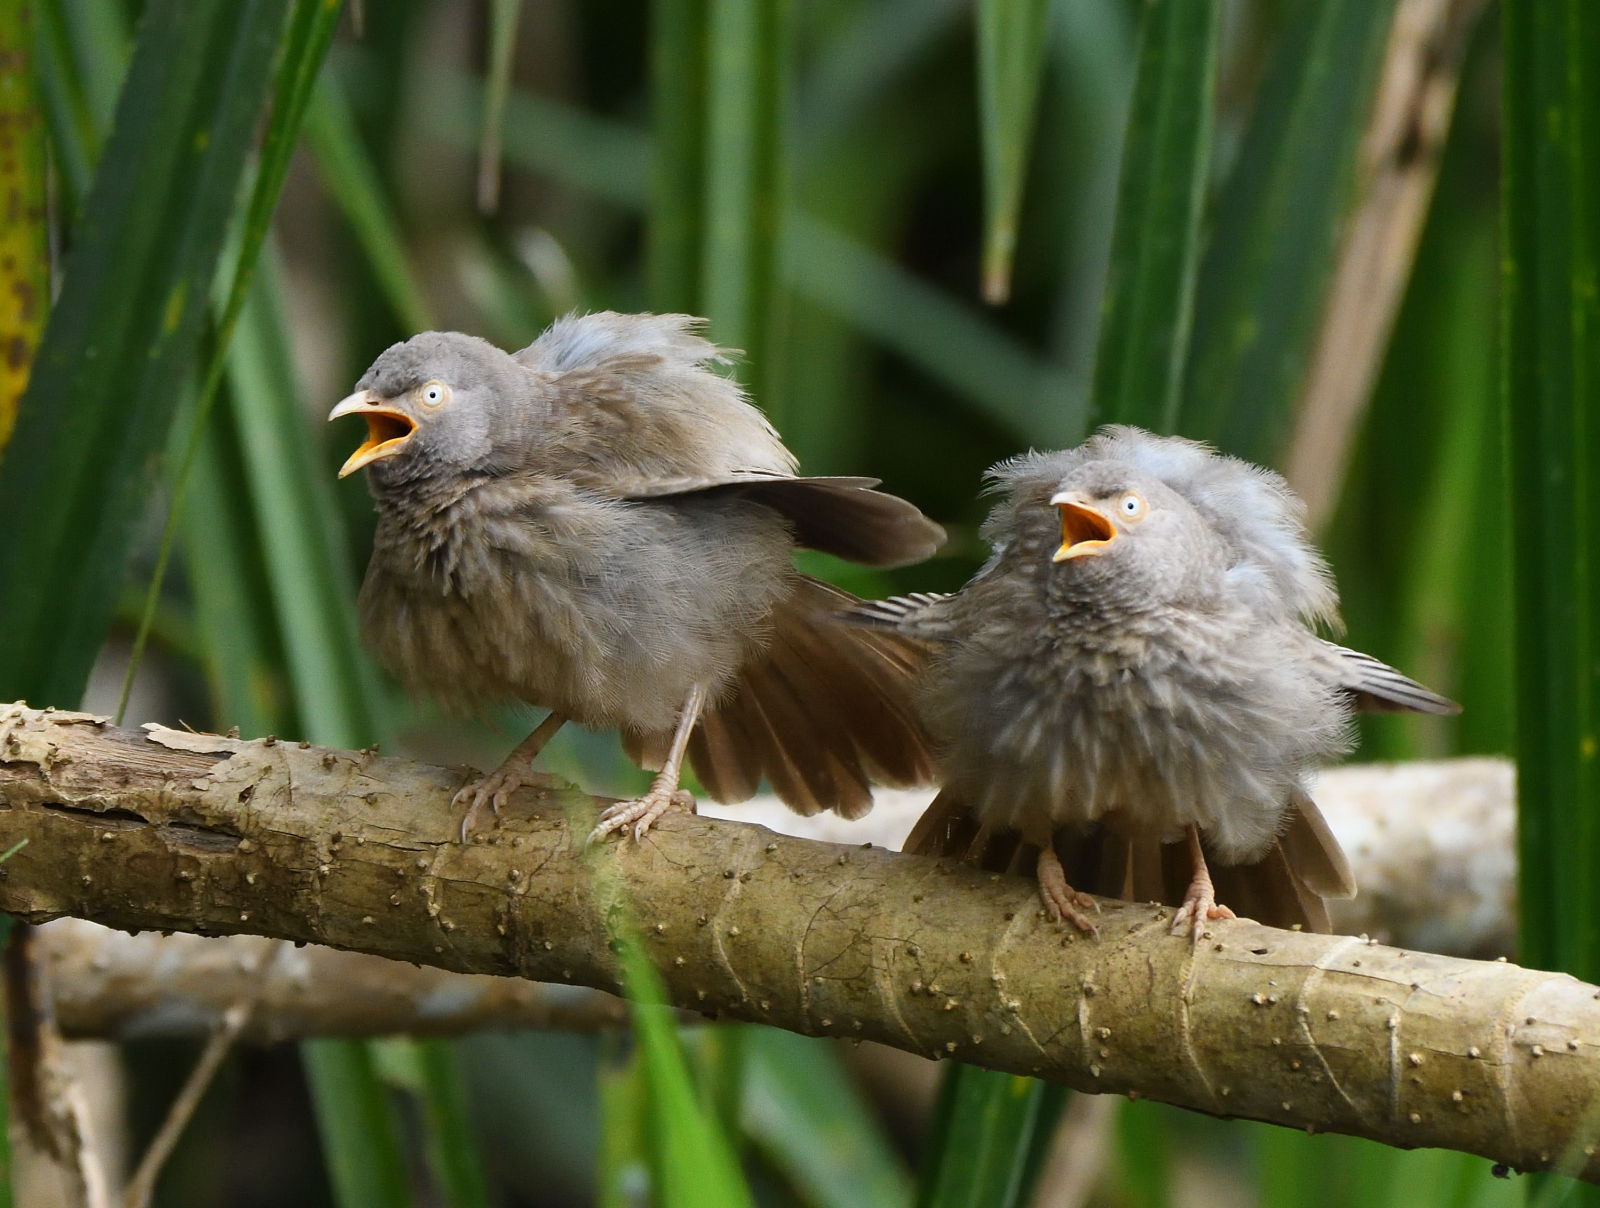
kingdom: Animalia
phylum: Chordata
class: Aves
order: Passeriformes
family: Leiothrichidae
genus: Turdoides
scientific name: Turdoides striata
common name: Jungle babbler
